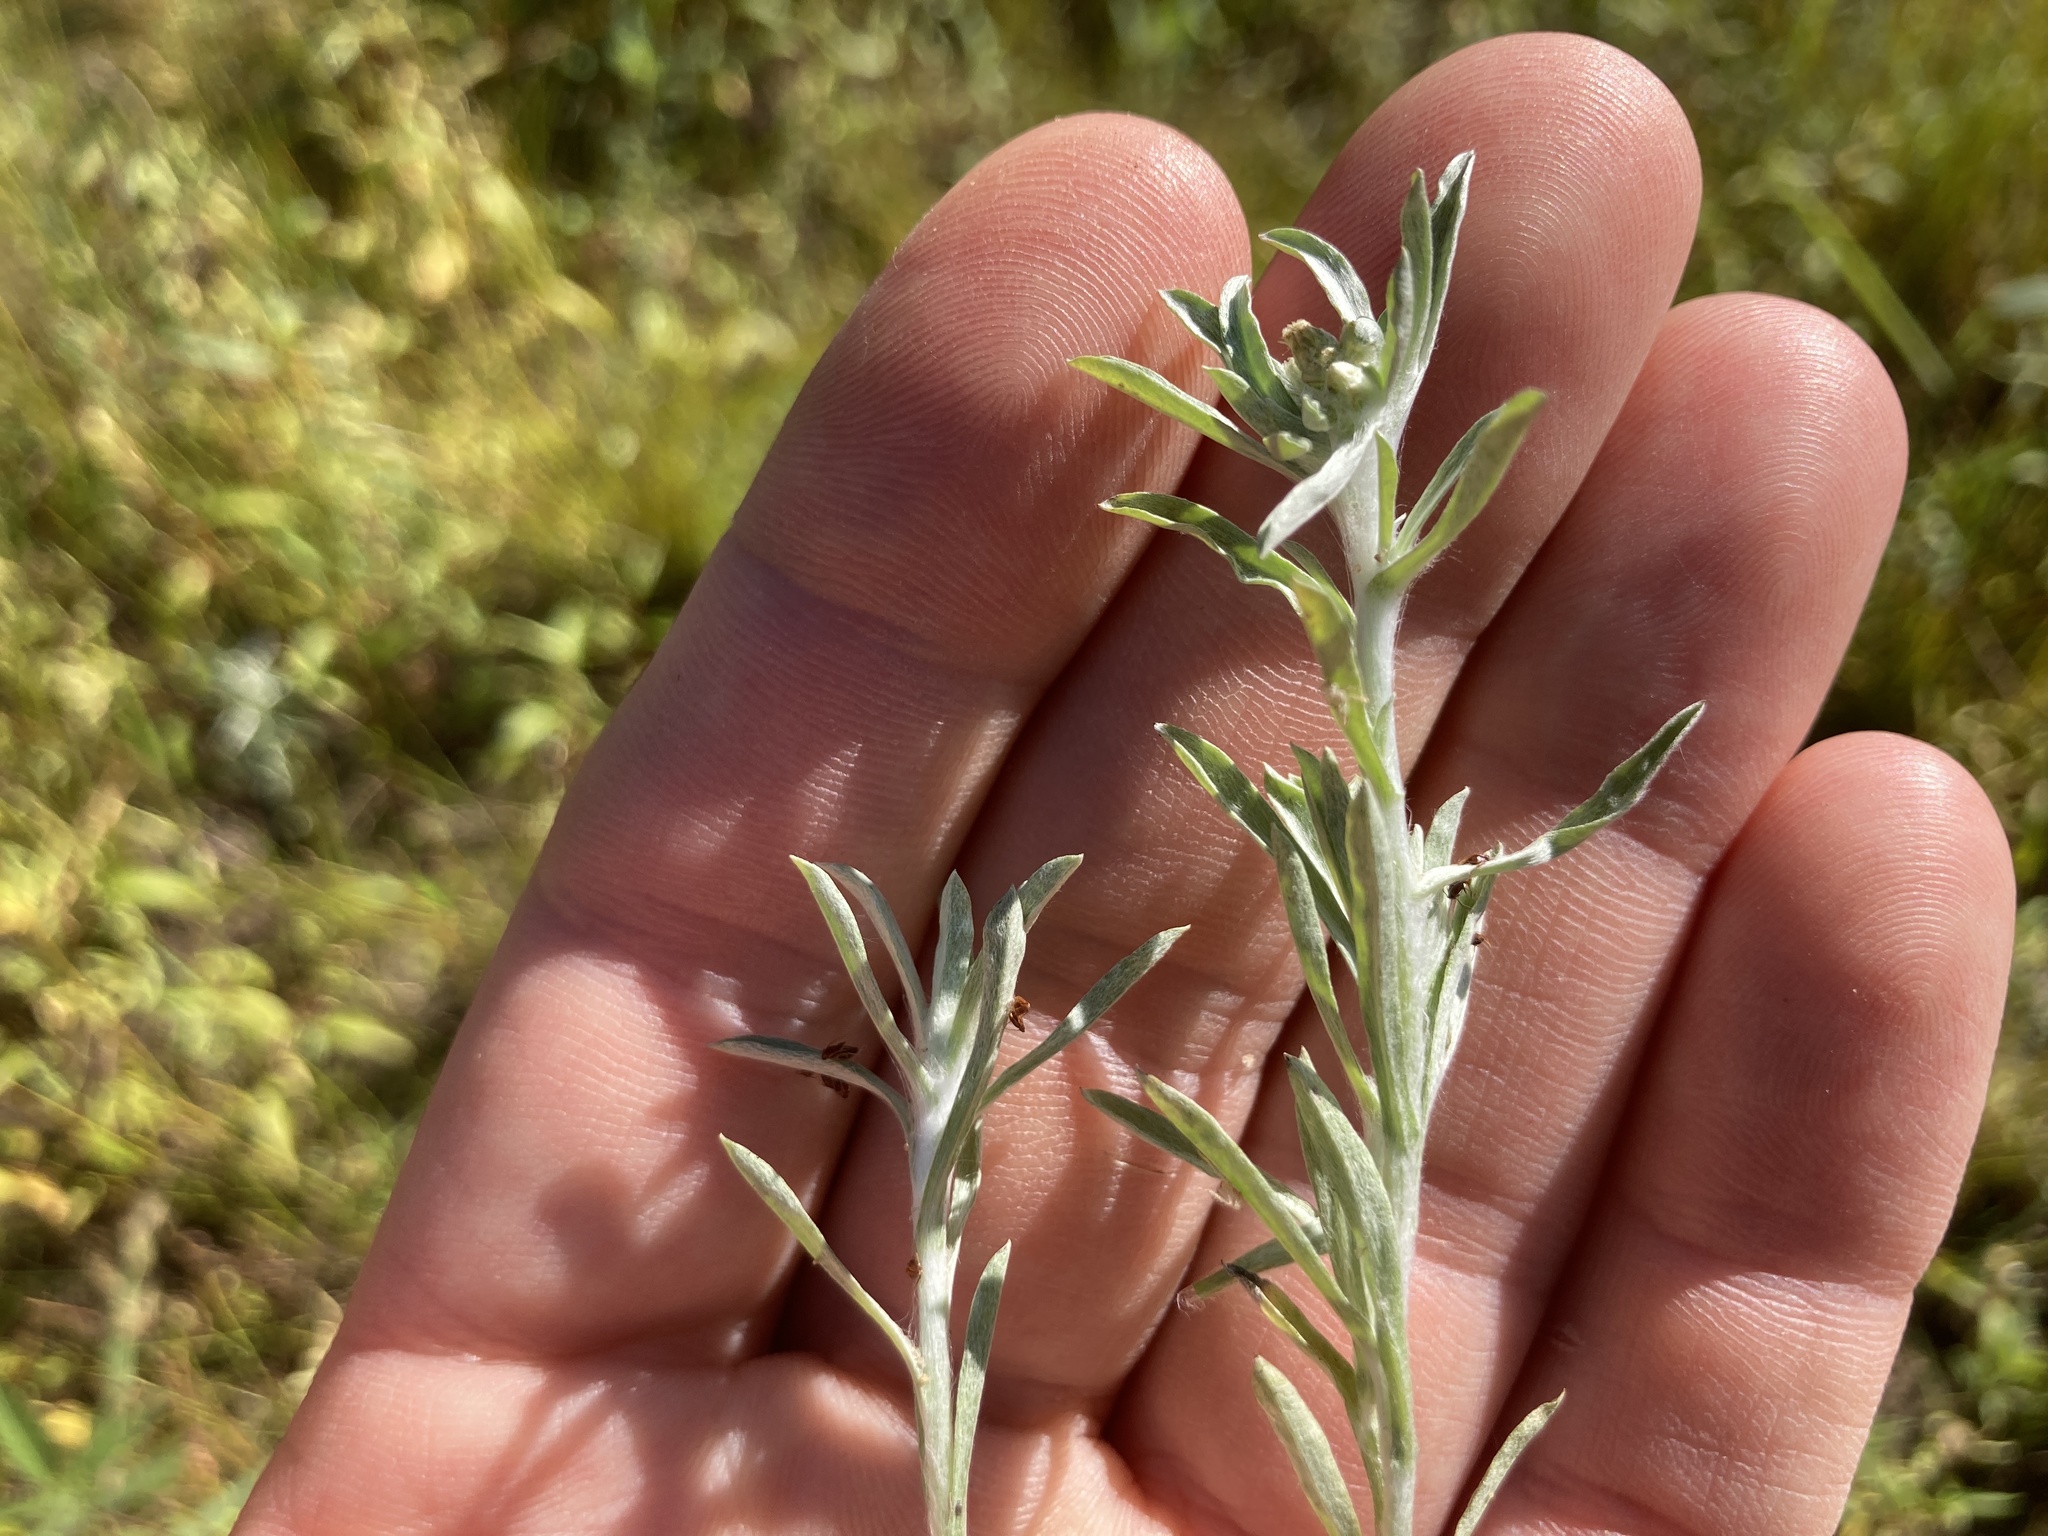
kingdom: Plantae
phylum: Tracheophyta
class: Magnoliopsida
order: Asterales
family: Asteraceae
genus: Gnaphalium
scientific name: Gnaphalium uliginosum
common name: Marsh cudweed
